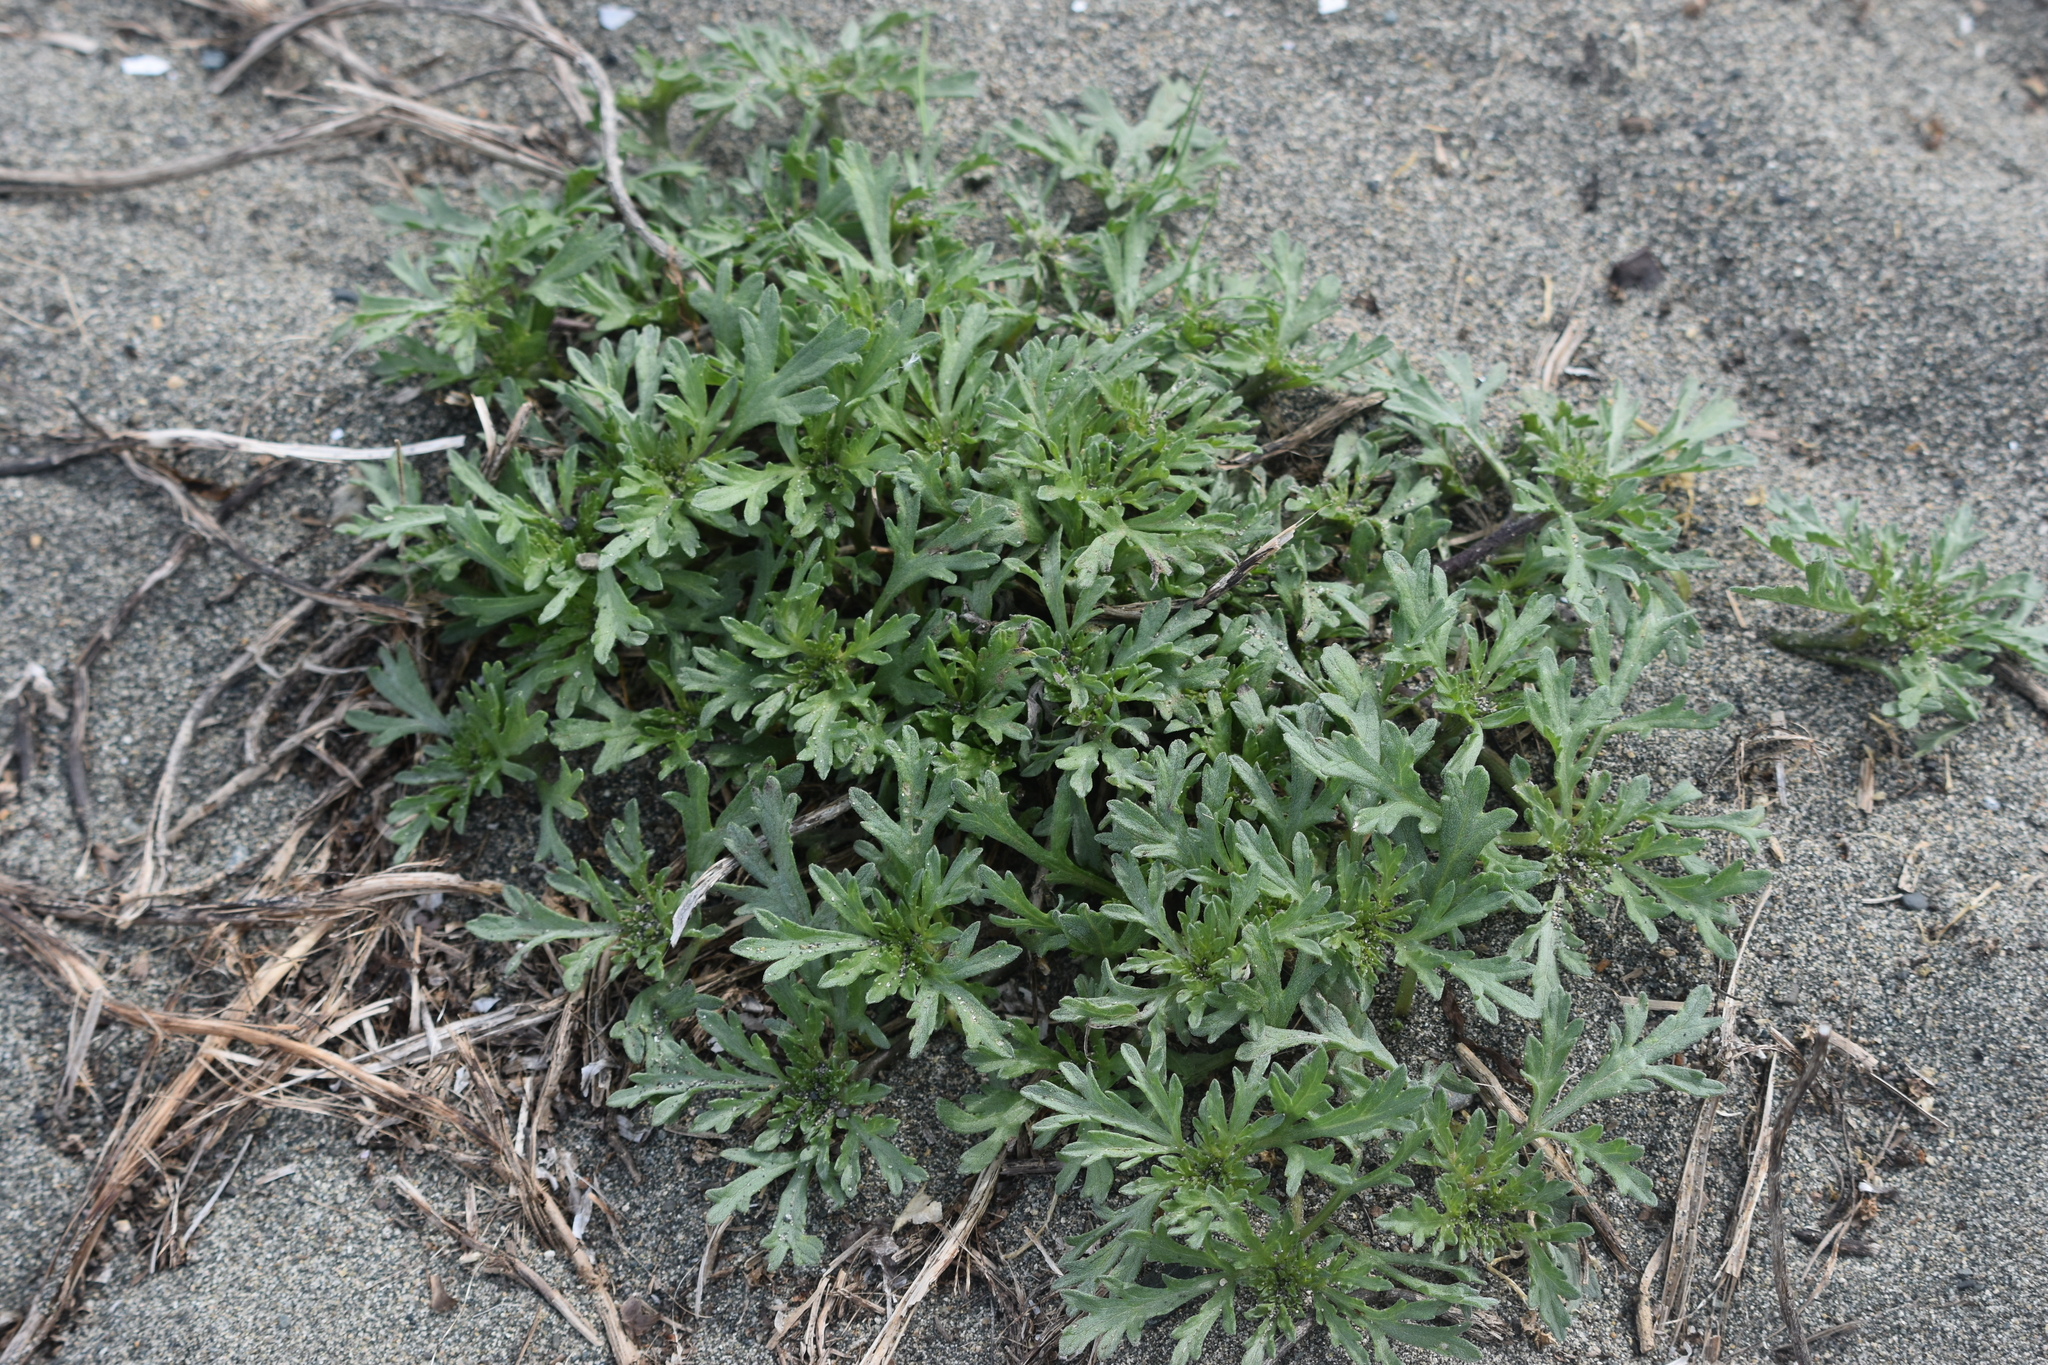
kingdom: Plantae
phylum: Tracheophyta
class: Magnoliopsida
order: Asterales
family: Asteraceae
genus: Ambrosia
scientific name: Ambrosia chamissonis
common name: Beachbur
